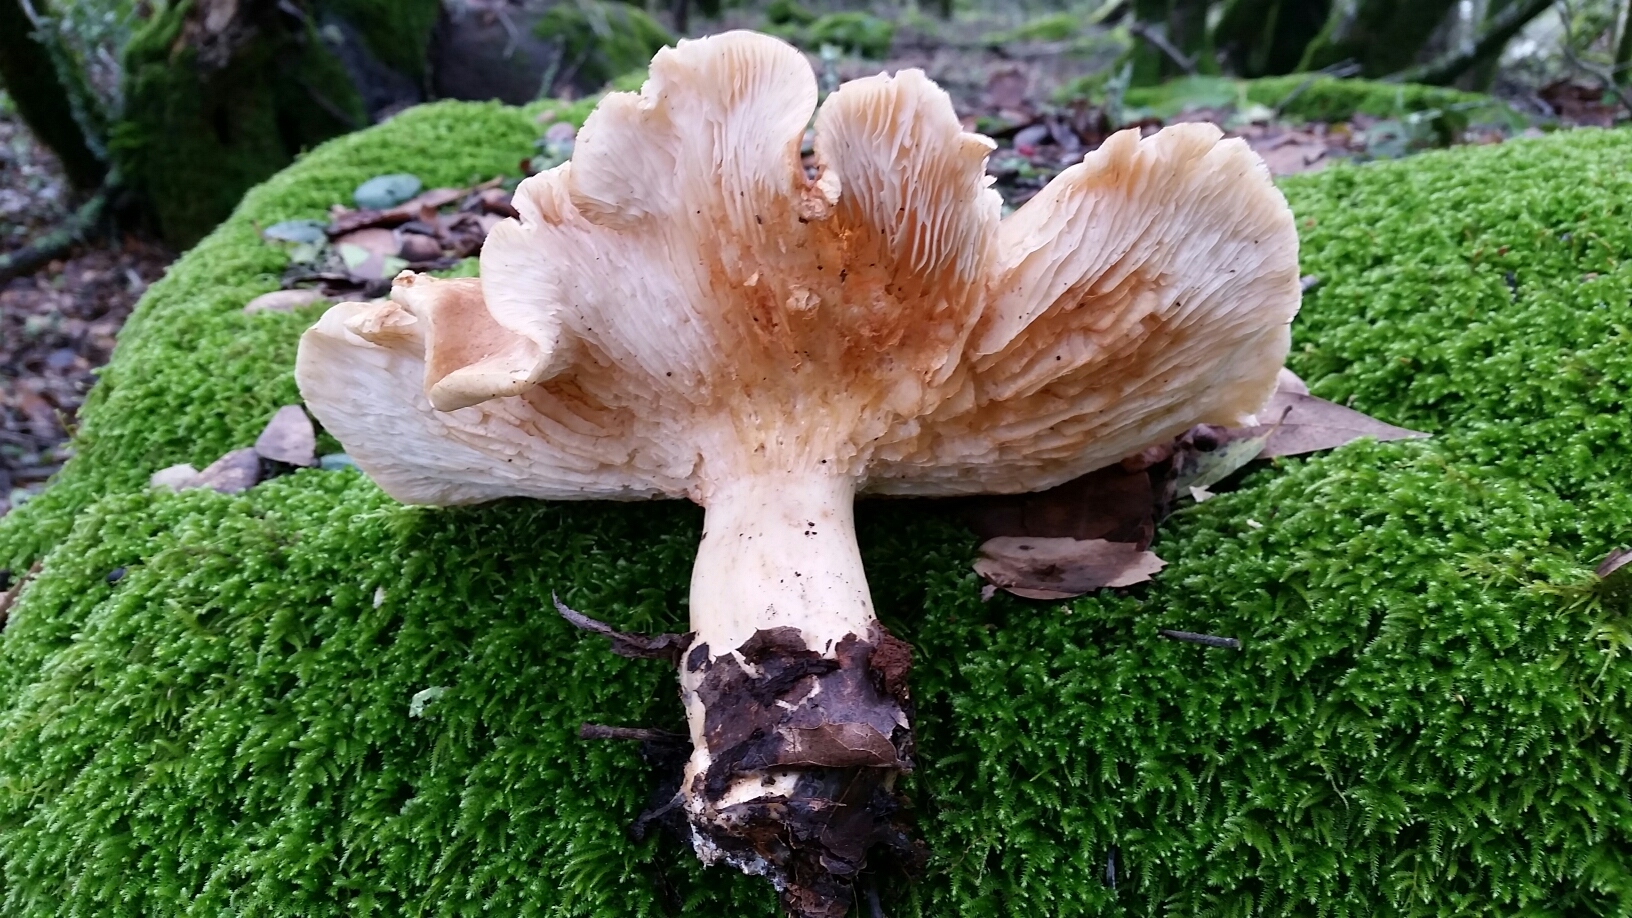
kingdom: Fungi
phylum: Basidiomycota
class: Agaricomycetes
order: Agaricales
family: Tricholomataceae
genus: Leucopaxillus
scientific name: Leucopaxillus gentianeus
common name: Bitter funnel
